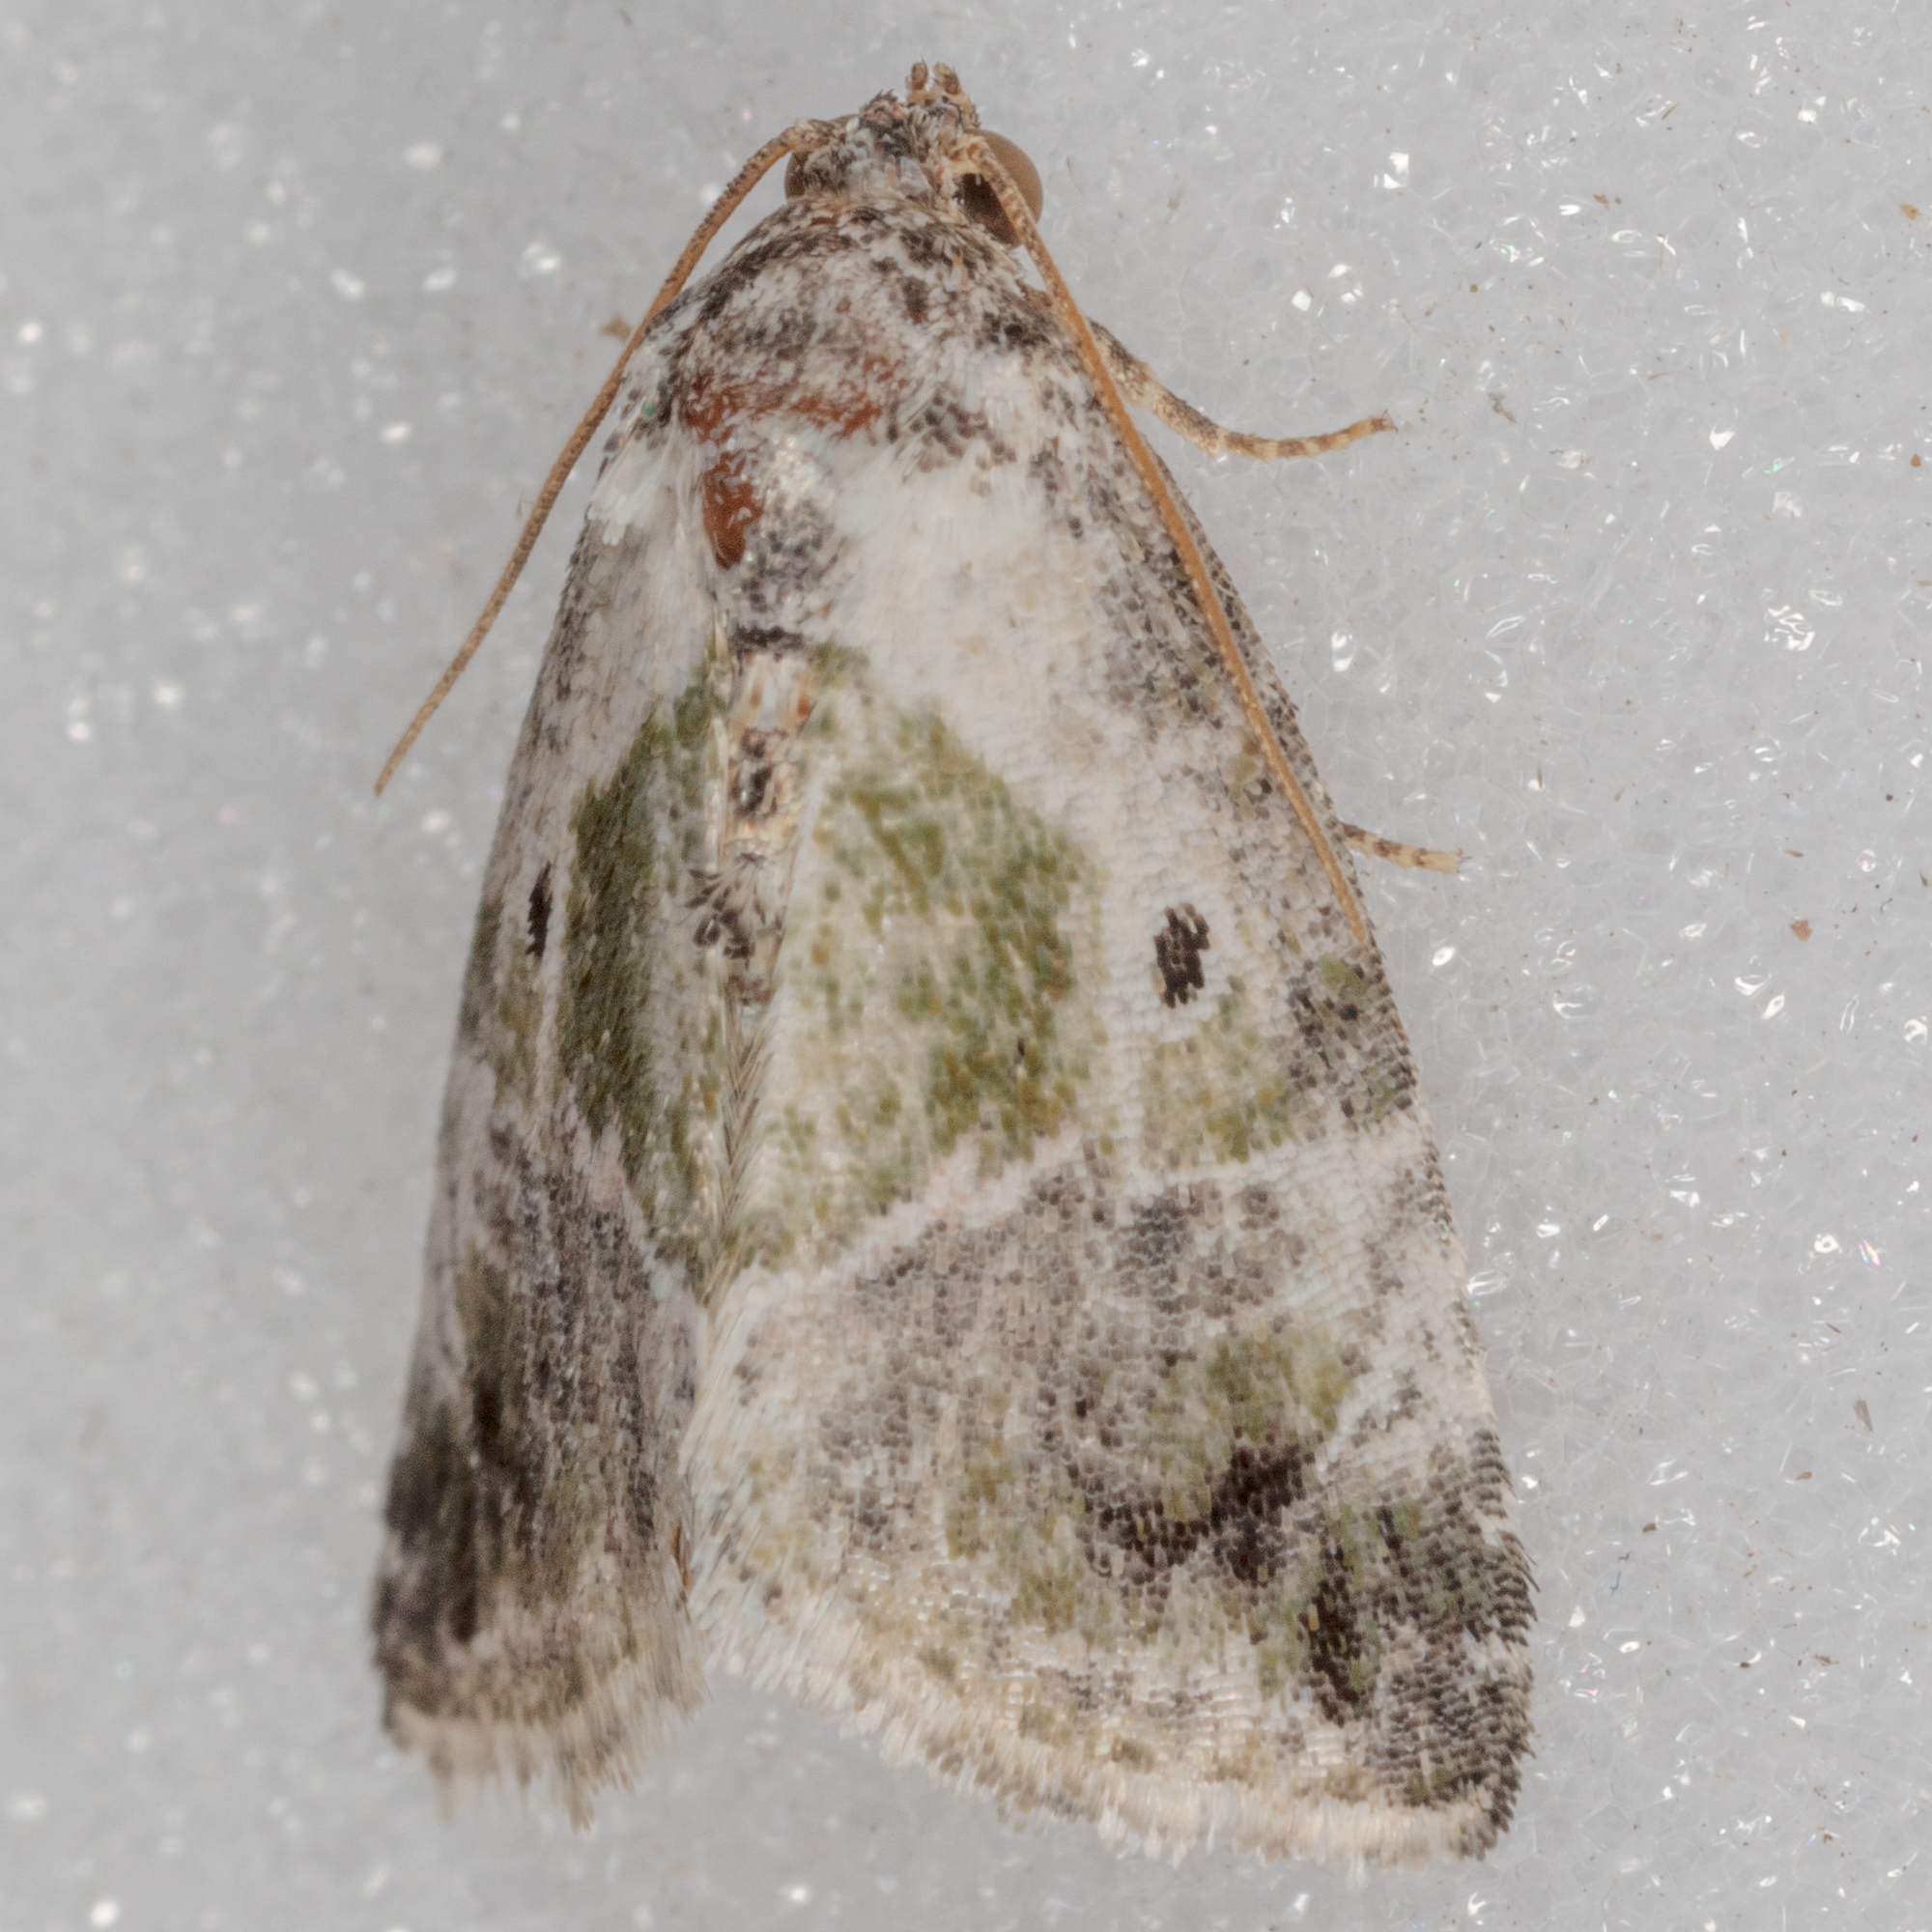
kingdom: Animalia
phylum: Arthropoda
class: Insecta
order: Lepidoptera
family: Noctuidae
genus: Maliattha
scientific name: Maliattha synochitis
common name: Black-dotted glyph
